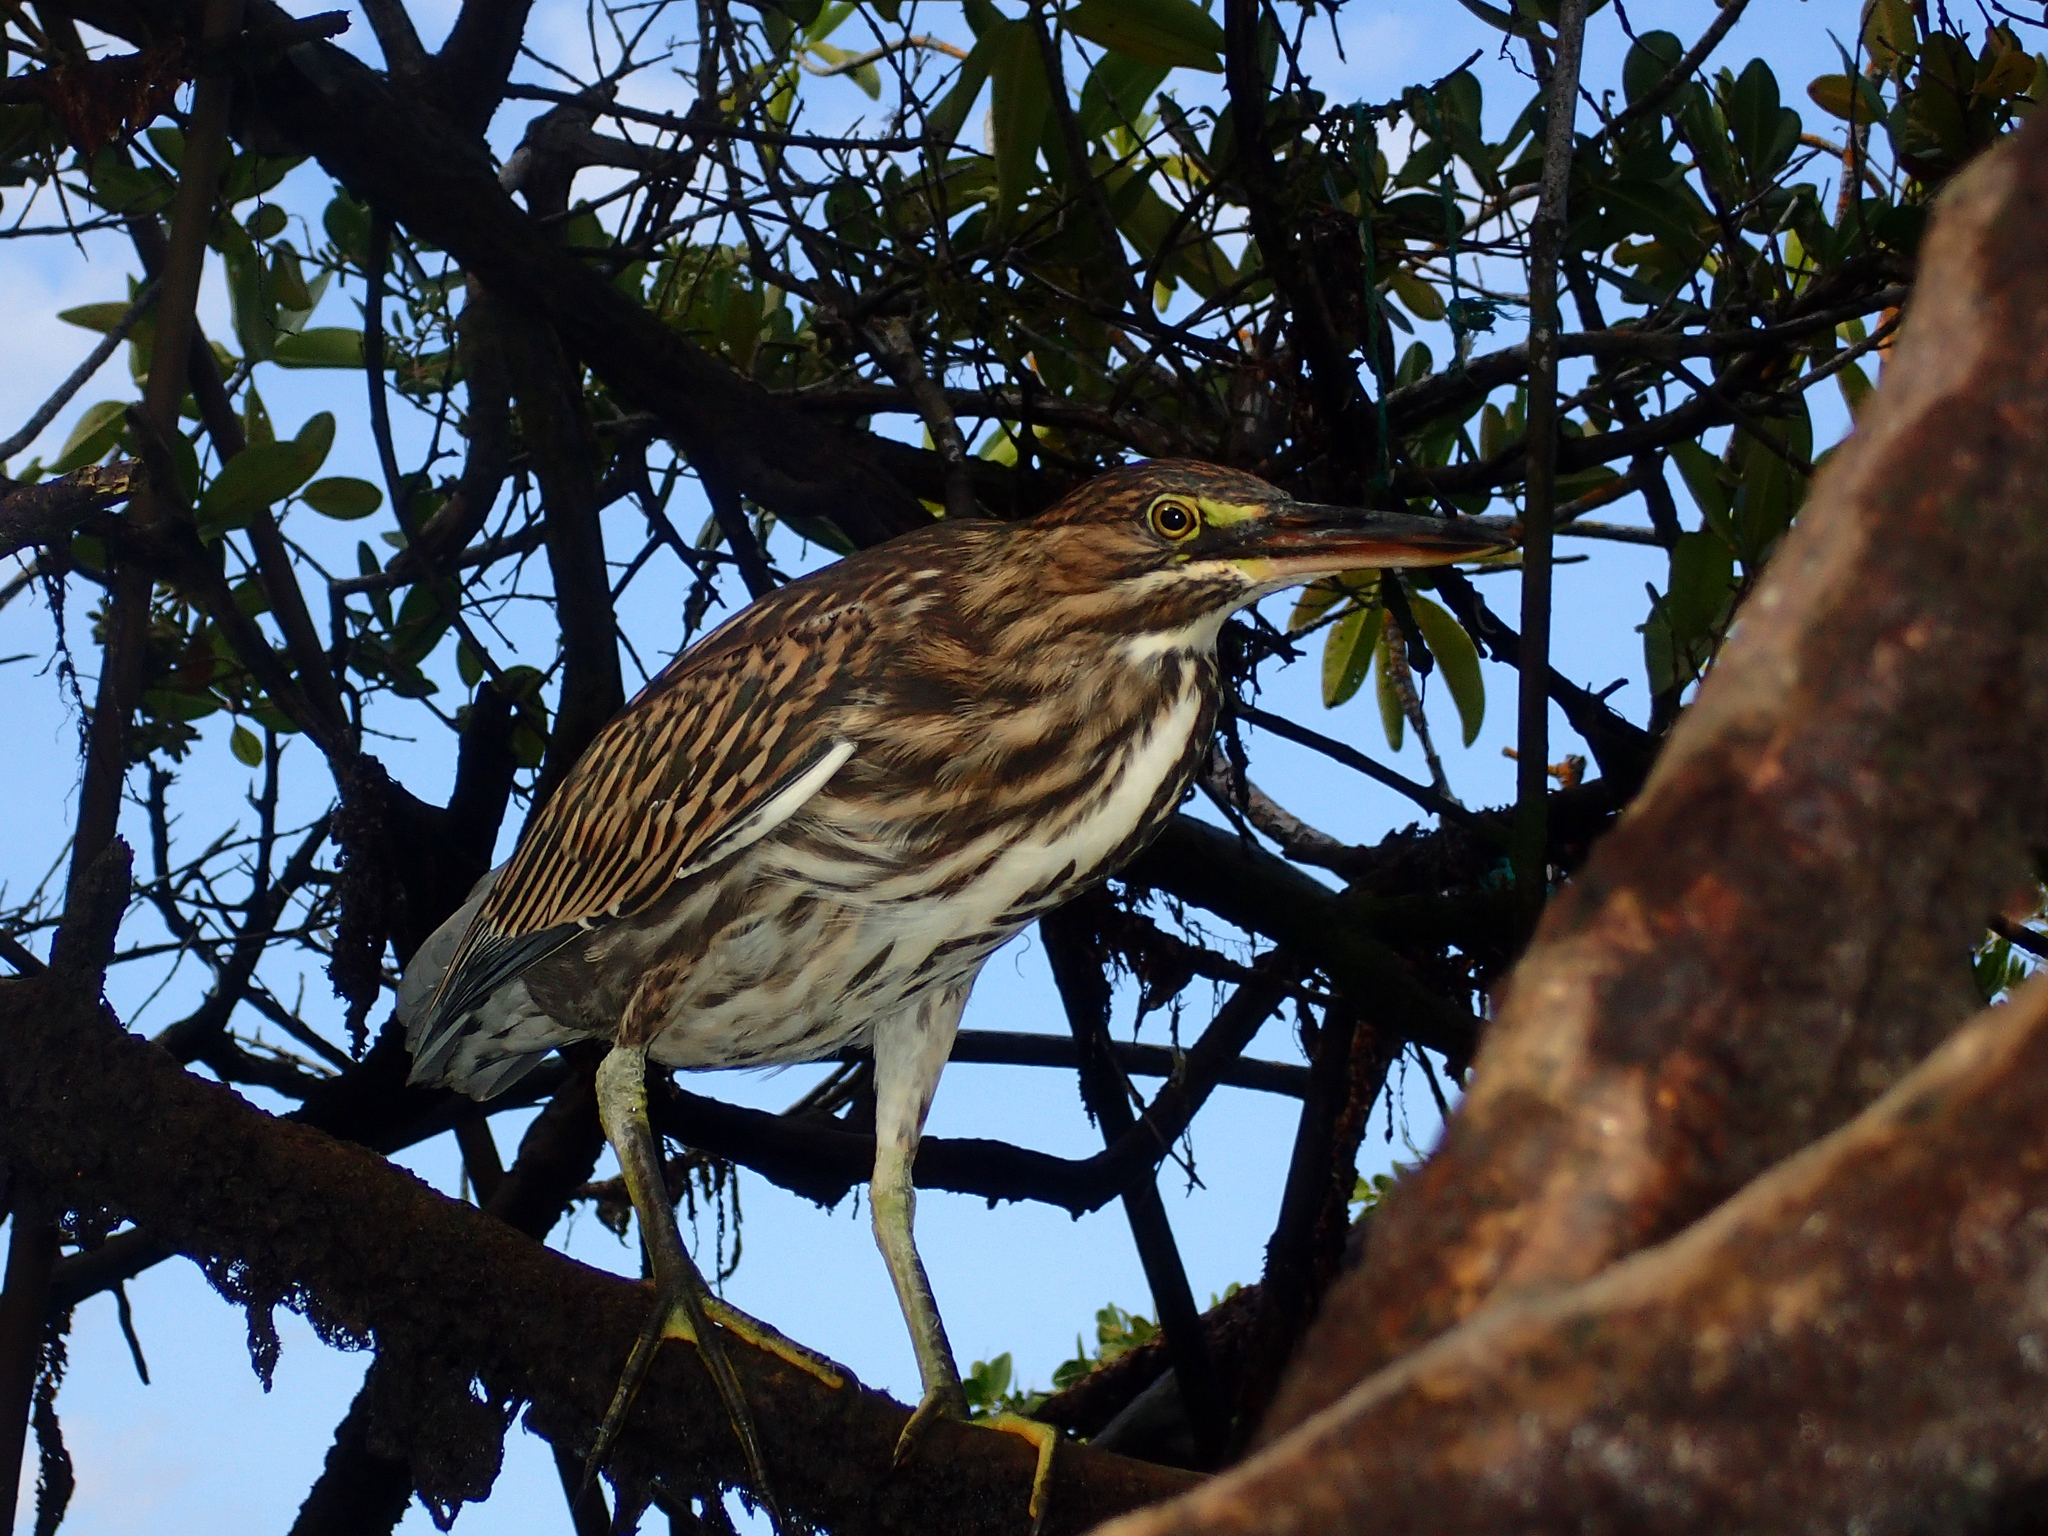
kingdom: Animalia
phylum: Chordata
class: Aves
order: Pelecaniformes
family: Ardeidae
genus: Butorides
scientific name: Butorides striata
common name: Striated heron
